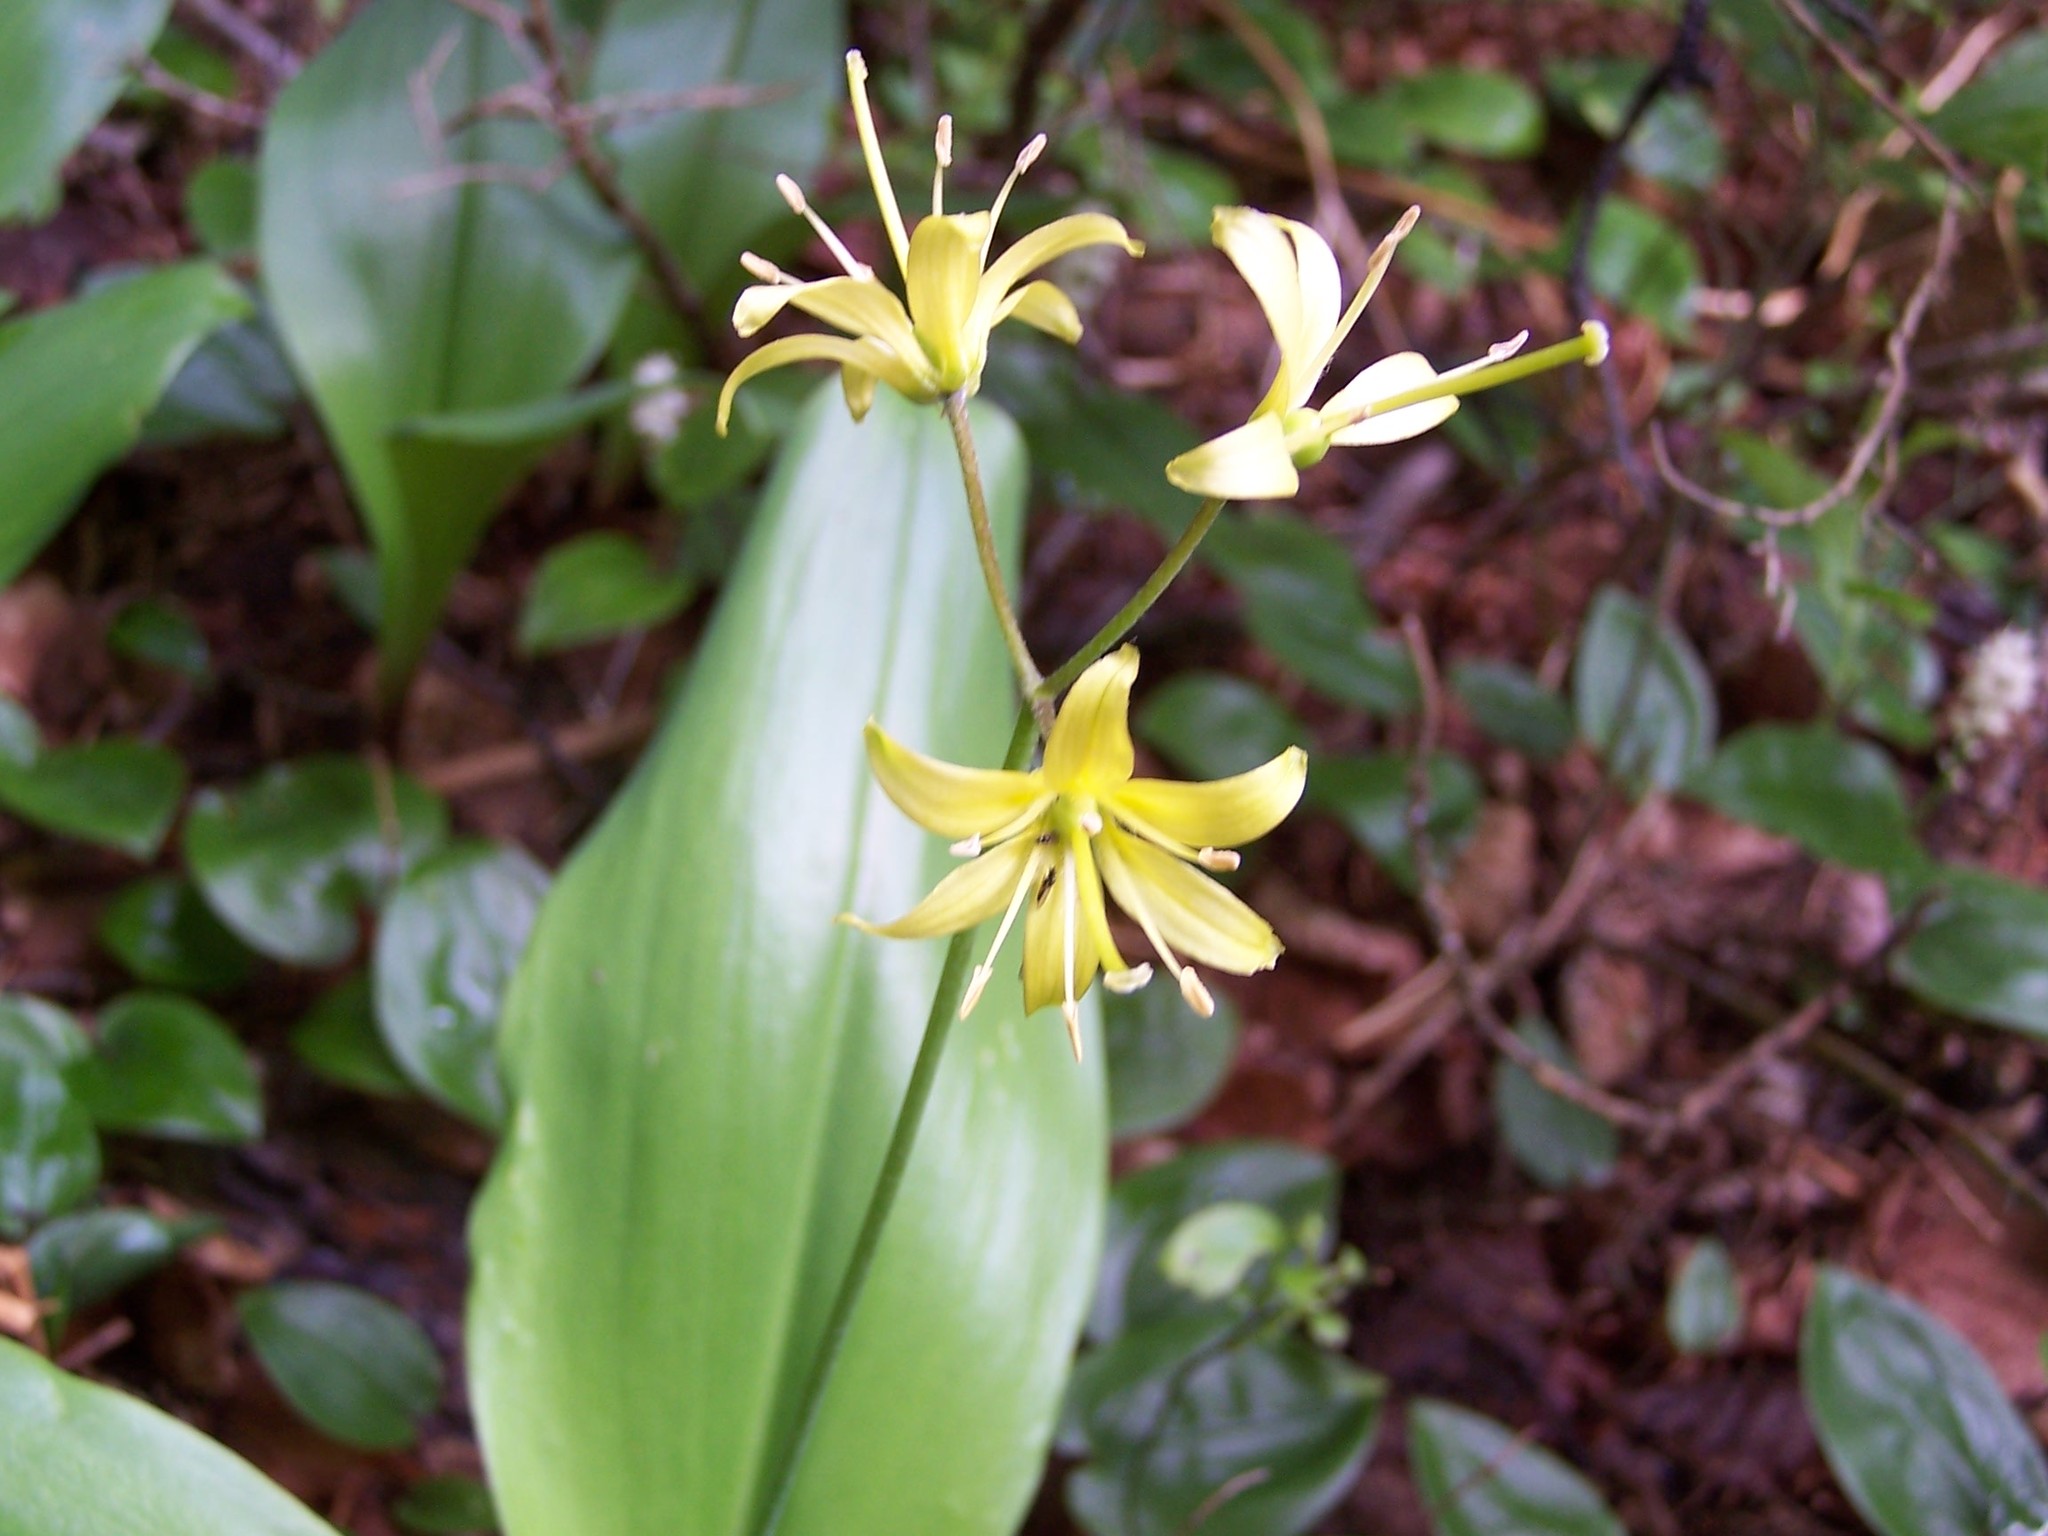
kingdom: Plantae
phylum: Tracheophyta
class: Liliopsida
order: Liliales
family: Liliaceae
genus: Clintonia
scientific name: Clintonia borealis
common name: Yellow clintonia
